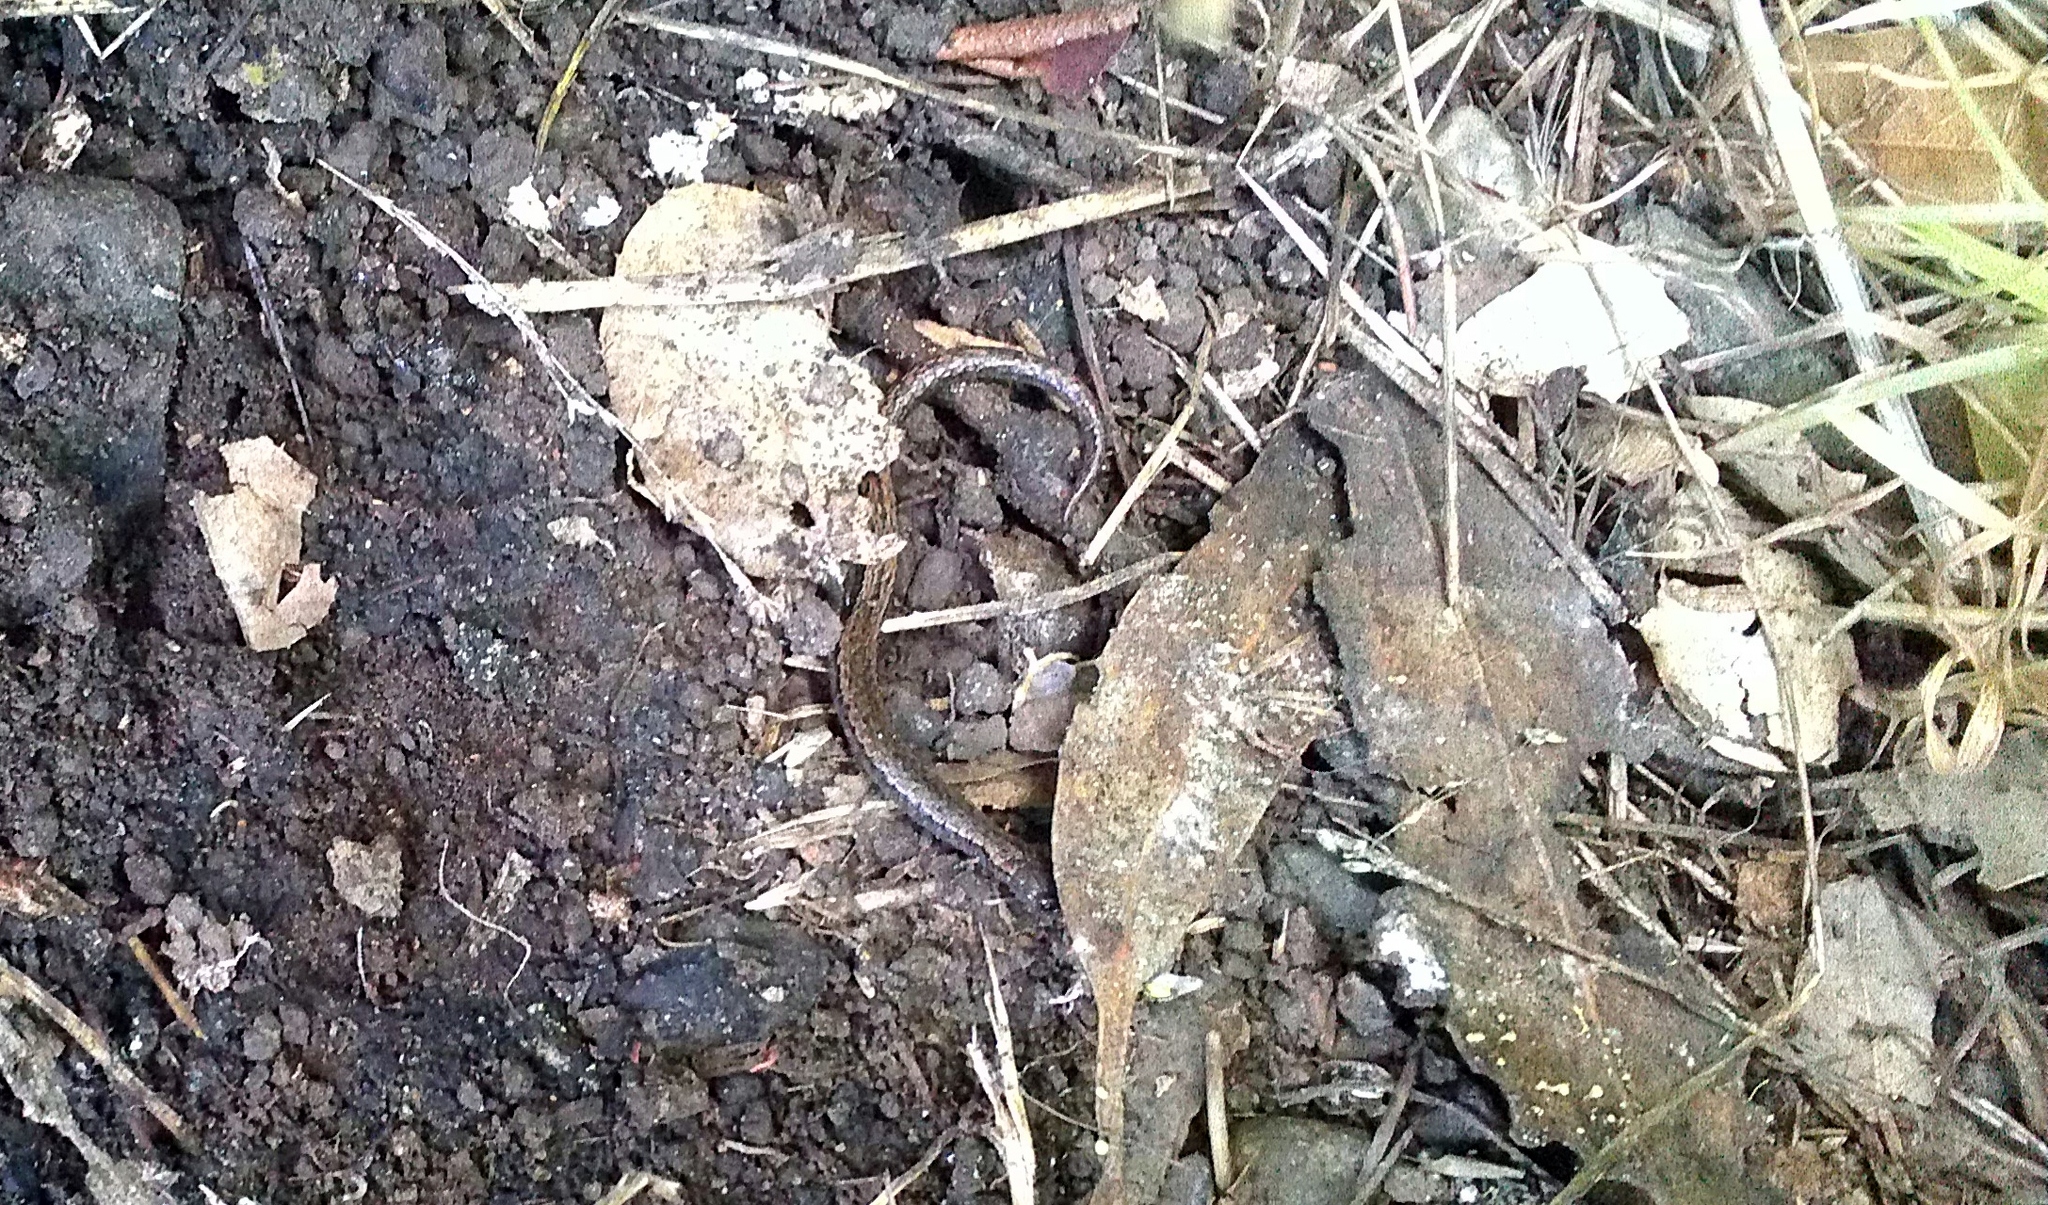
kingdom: Animalia
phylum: Chordata
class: Amphibia
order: Caudata
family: Plethodontidae
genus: Batrachoseps
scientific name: Batrachoseps attenuatus
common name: California slender salamander
